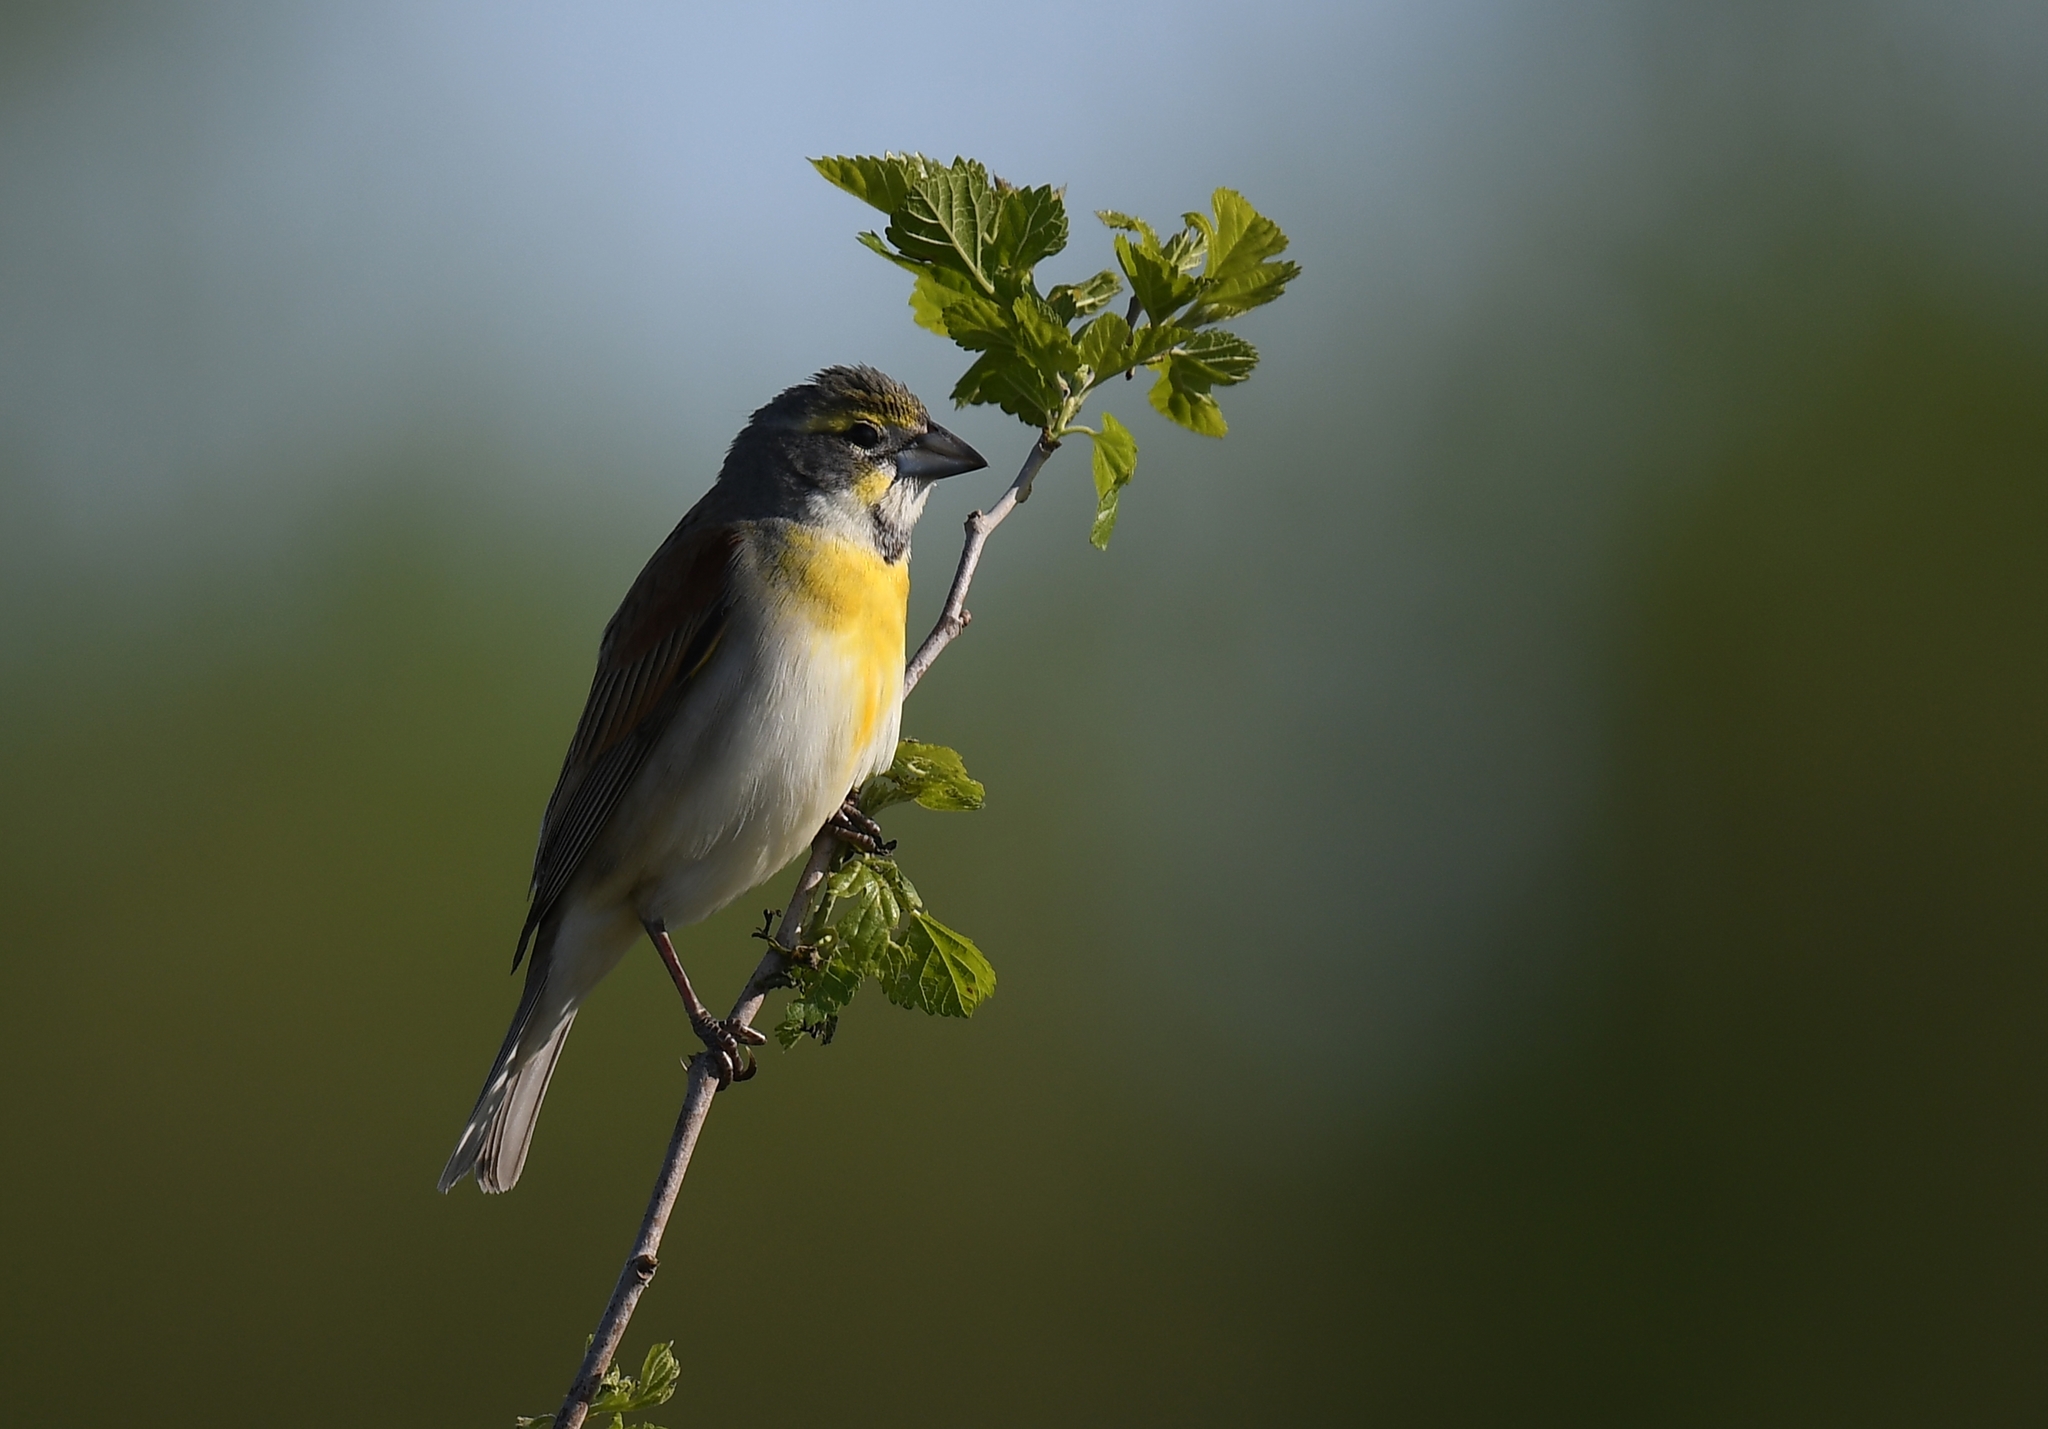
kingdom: Animalia
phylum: Chordata
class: Aves
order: Passeriformes
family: Cardinalidae
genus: Spiza
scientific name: Spiza americana
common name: Dickcissel
